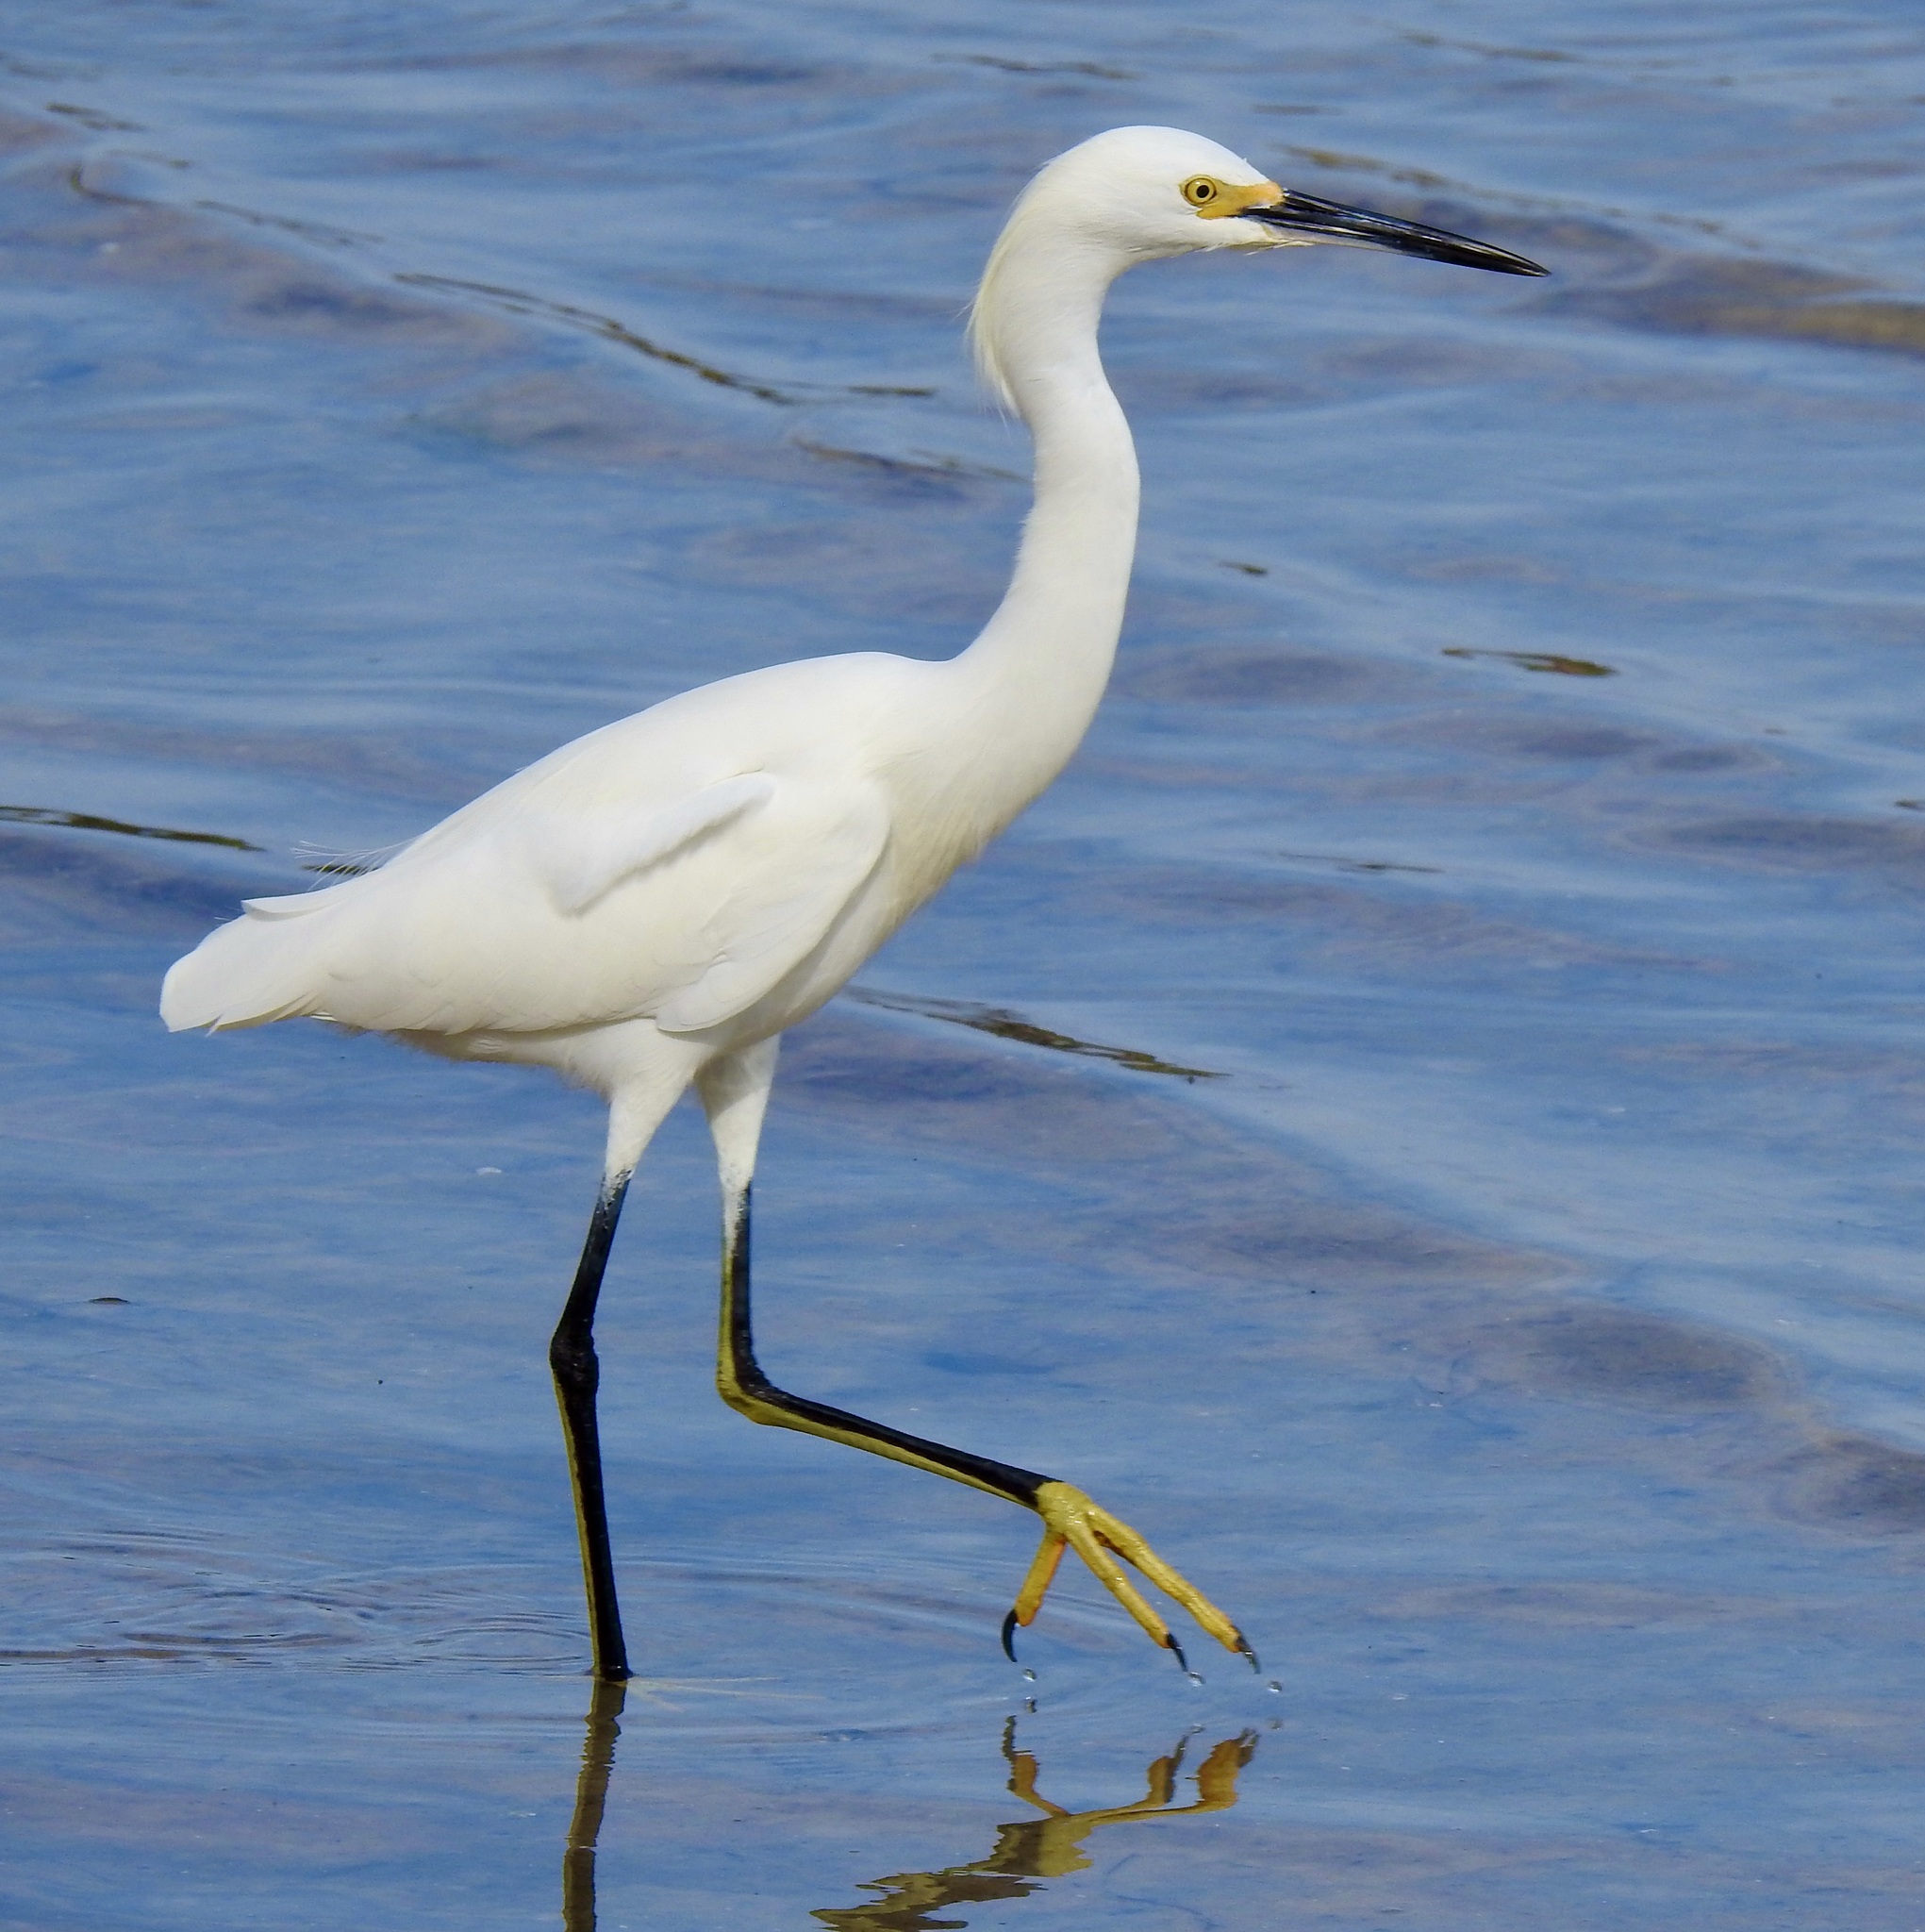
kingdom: Animalia
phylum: Chordata
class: Aves
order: Pelecaniformes
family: Ardeidae
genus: Egretta
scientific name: Egretta thula
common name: Snowy egret
